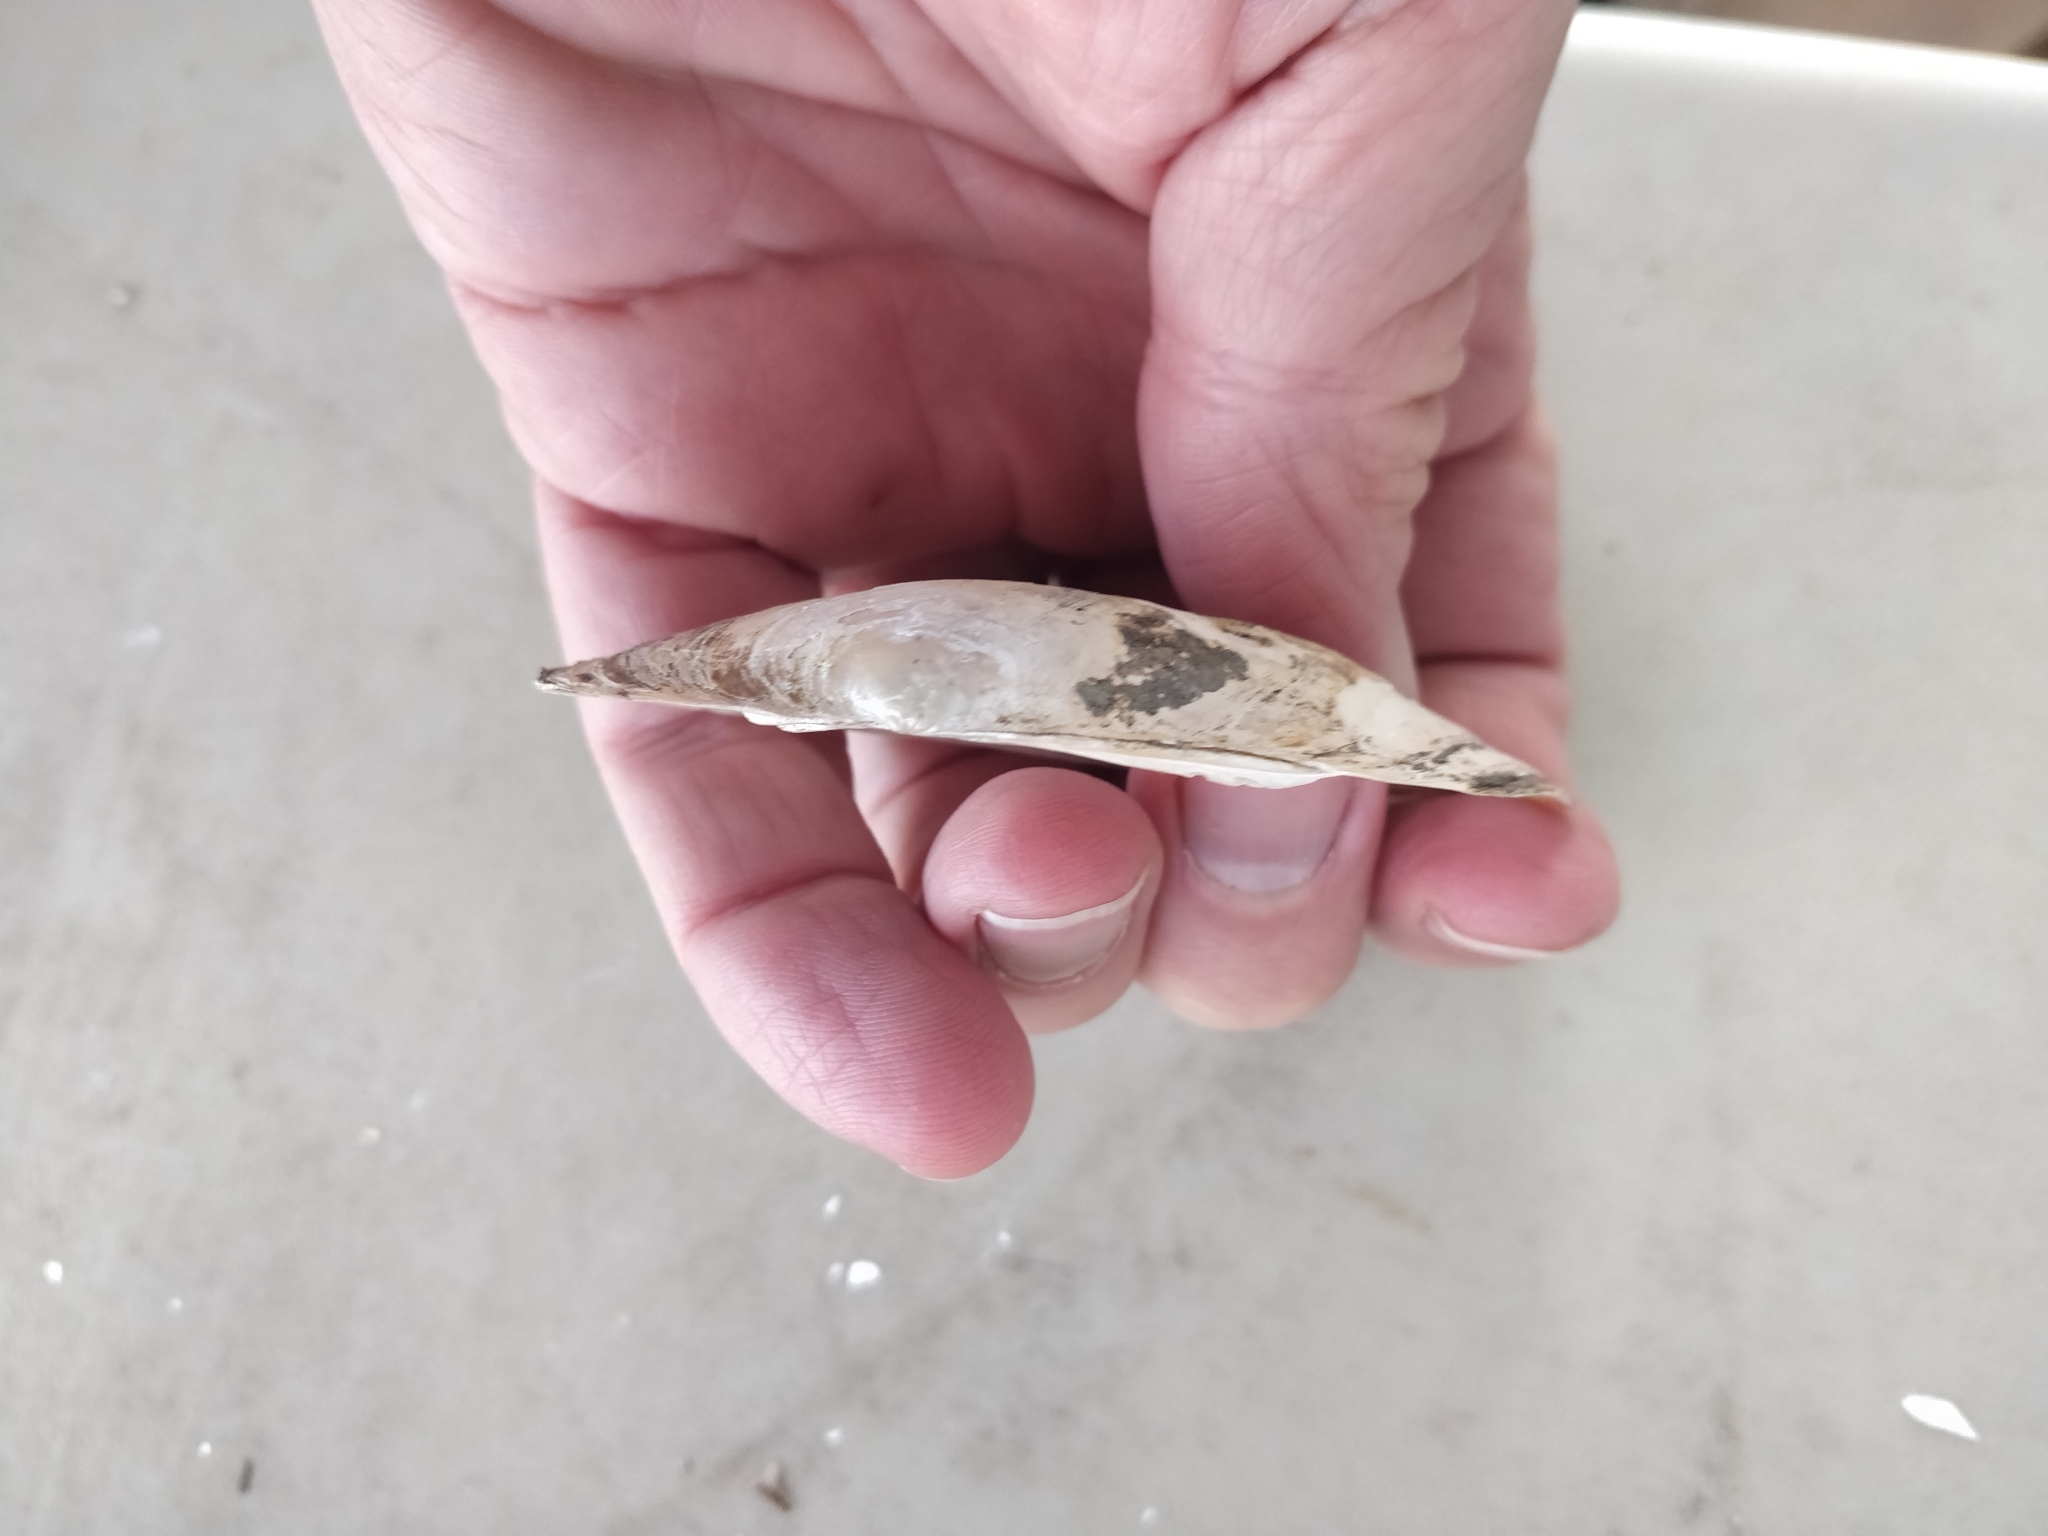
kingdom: Animalia
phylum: Mollusca
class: Bivalvia
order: Unionida
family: Unionidae
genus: Lasmigona
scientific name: Lasmigona compressa
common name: Creek heelsplitter
